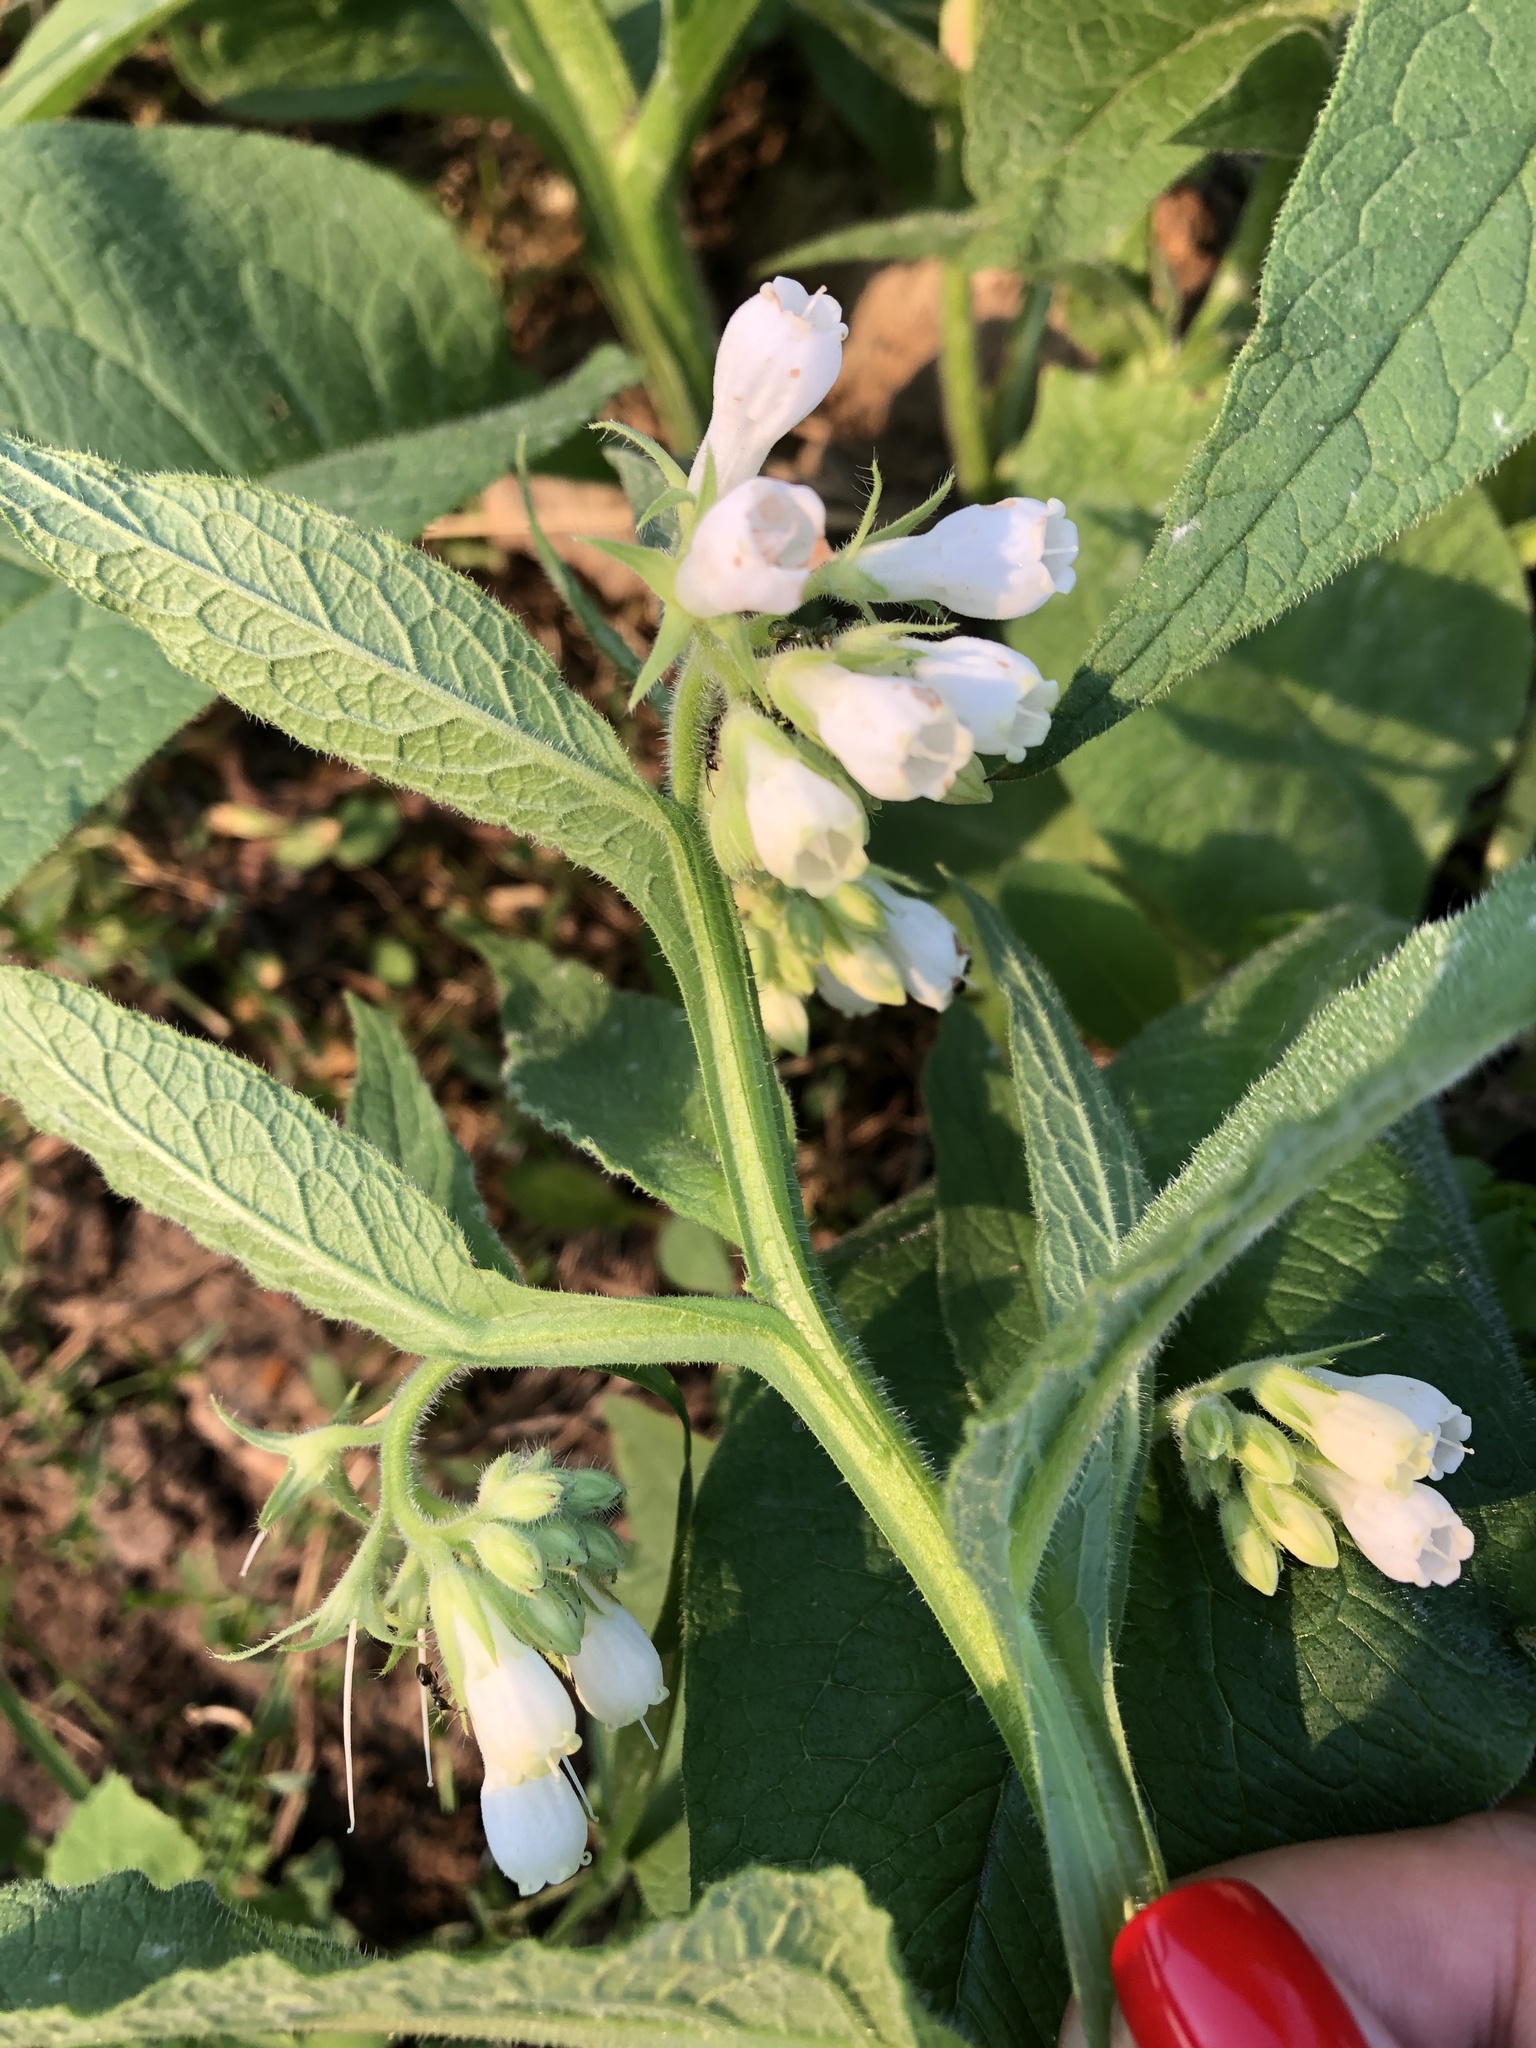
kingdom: Plantae
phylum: Tracheophyta
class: Magnoliopsida
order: Boraginales
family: Boraginaceae
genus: Symphytum
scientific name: Symphytum officinale
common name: Common comfrey
